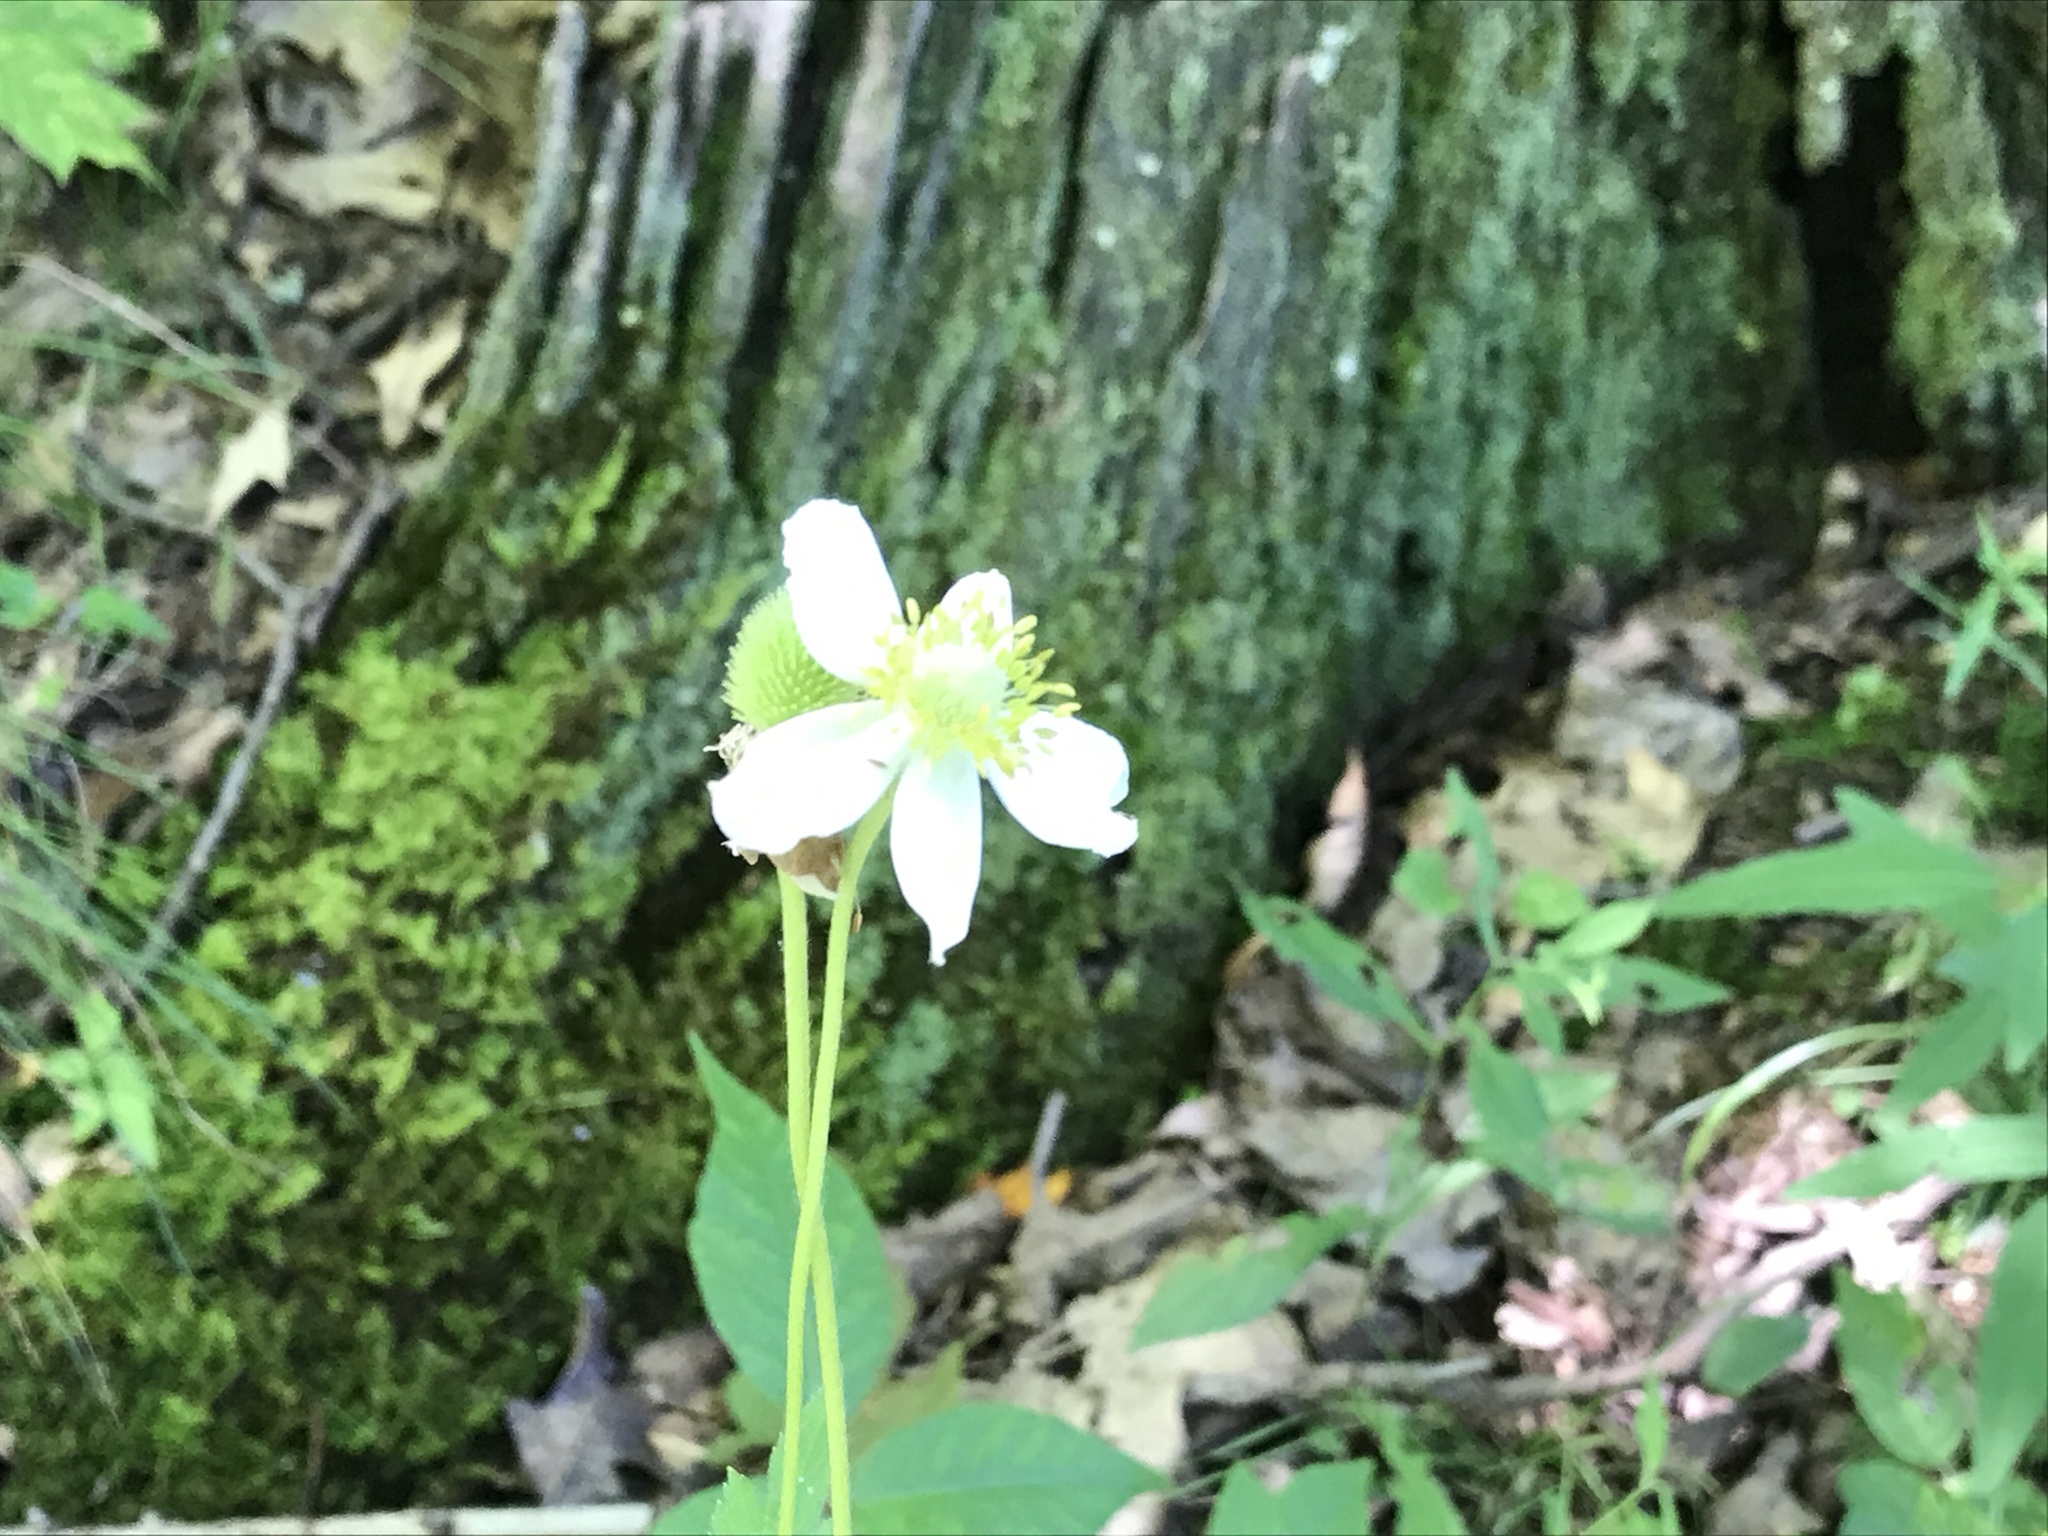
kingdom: Plantae
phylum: Tracheophyta
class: Magnoliopsida
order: Ranunculales
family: Ranunculaceae
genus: Anemone
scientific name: Anemone virginiana
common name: Tall anemone
